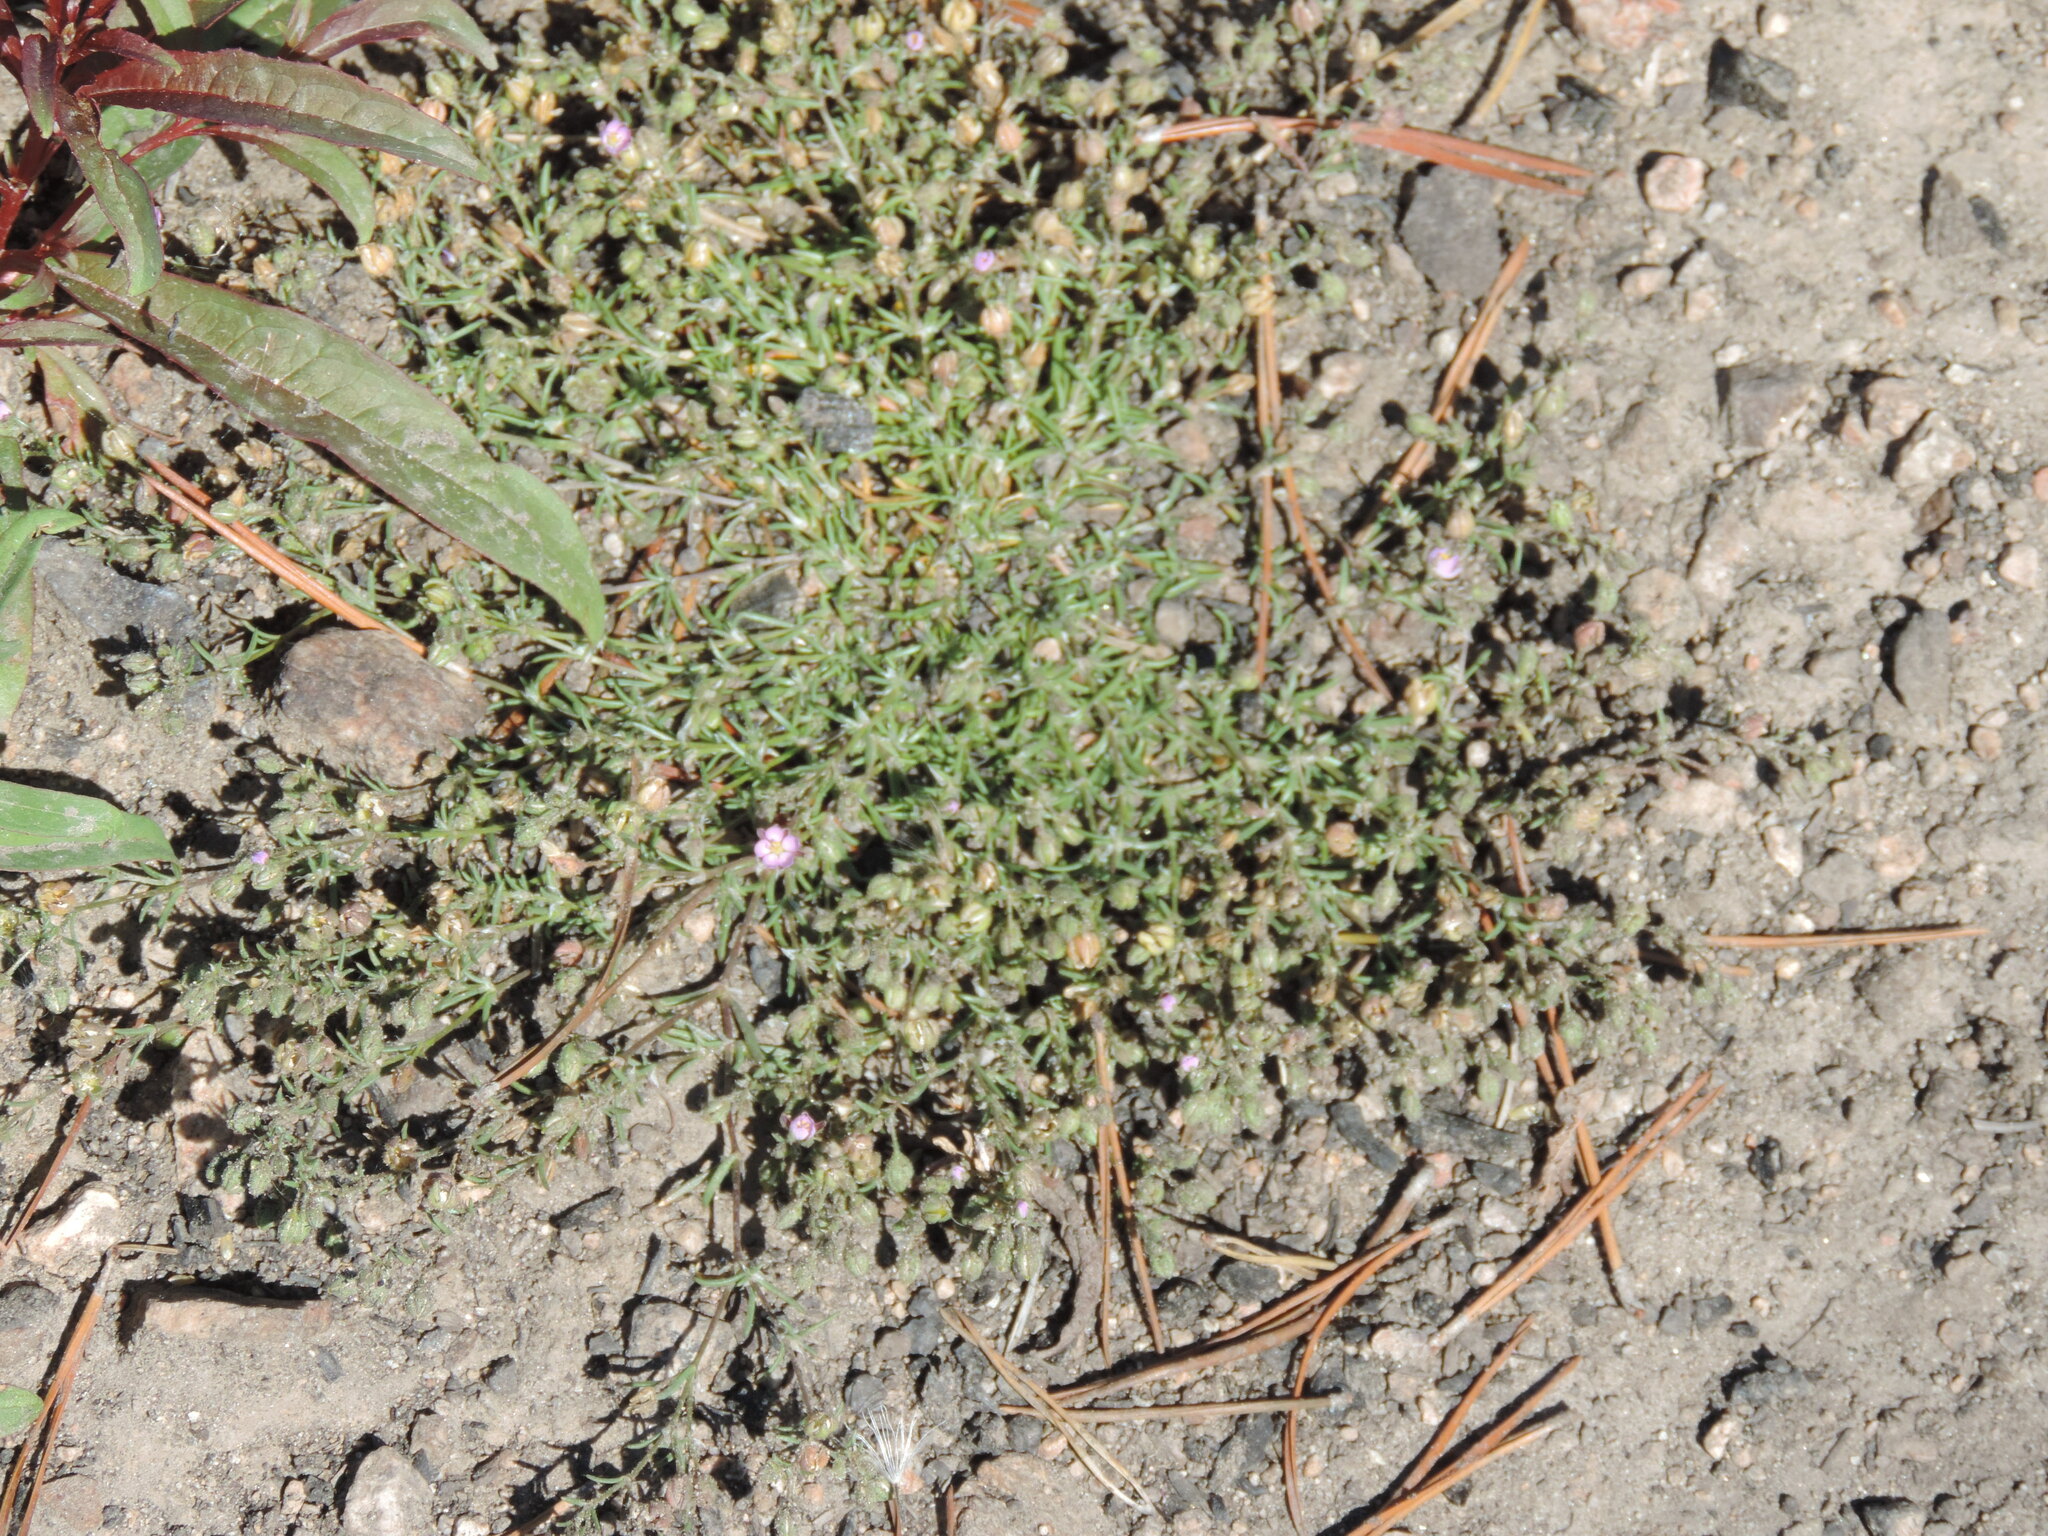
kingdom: Plantae
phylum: Tracheophyta
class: Magnoliopsida
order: Caryophyllales
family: Caryophyllaceae
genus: Spergularia
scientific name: Spergularia rubra
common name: Red sand-spurrey
